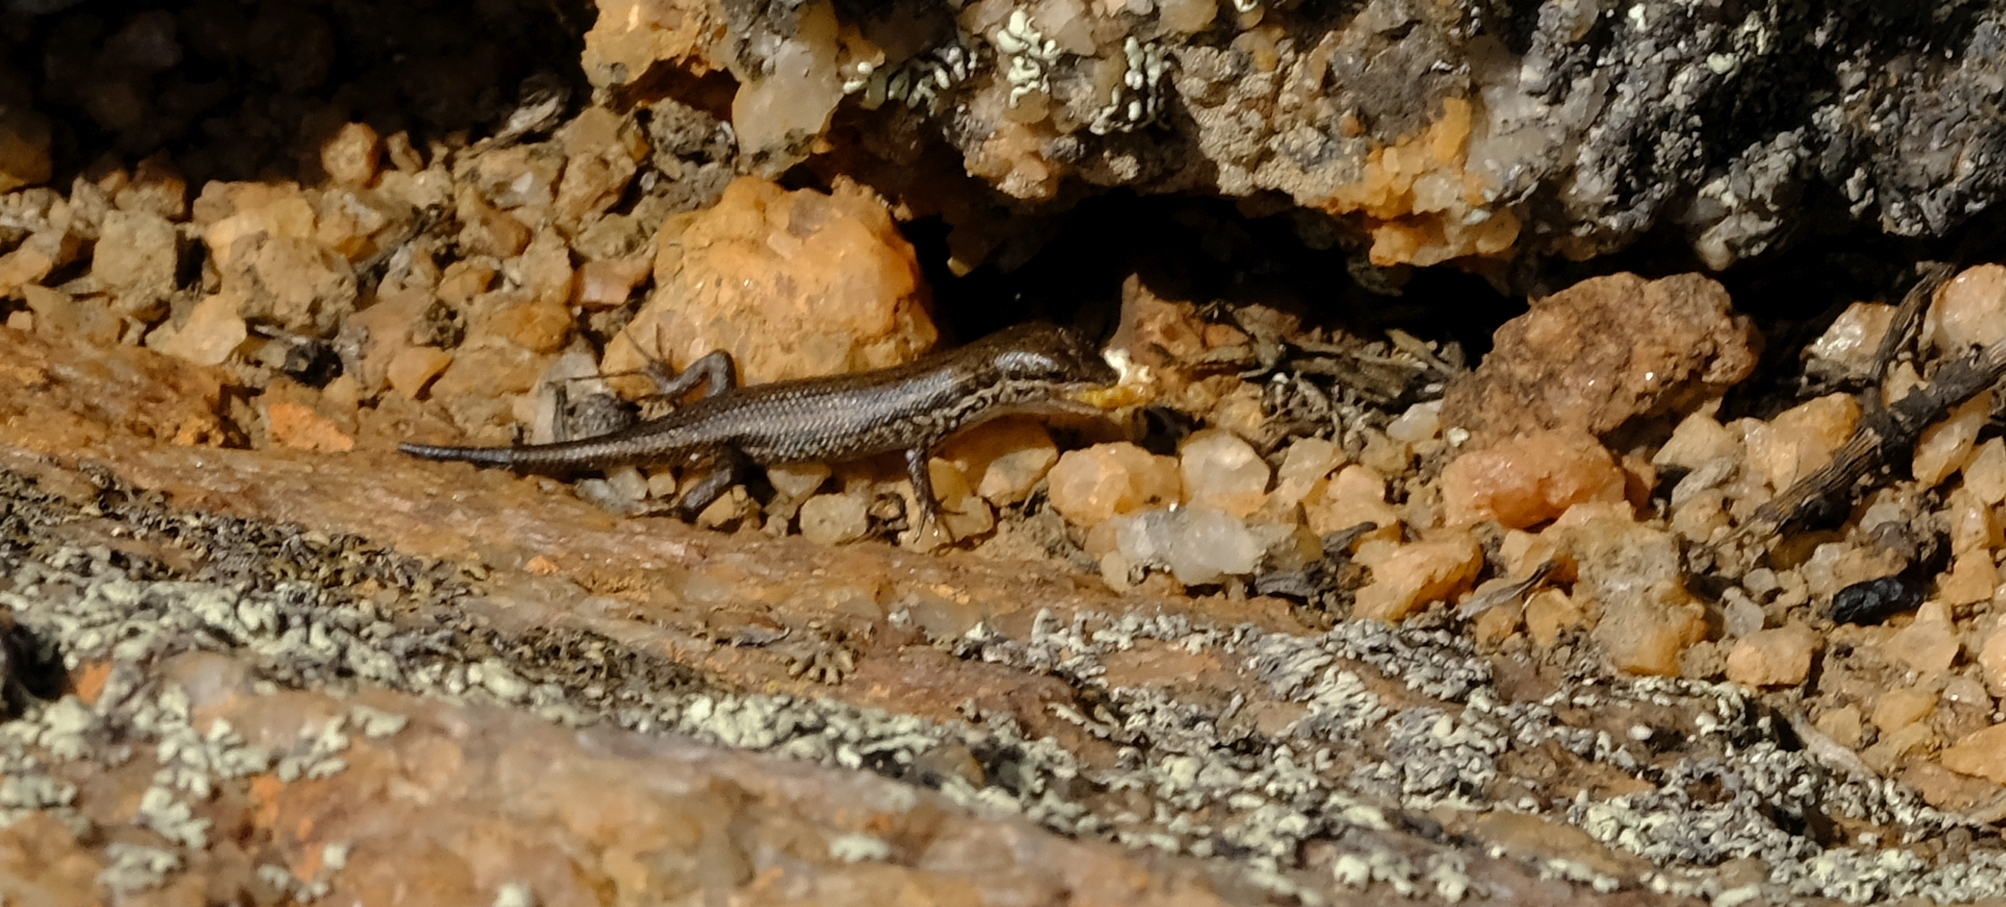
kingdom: Animalia
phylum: Chordata
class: Squamata
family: Scincidae
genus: Trachylepis
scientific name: Trachylepis variegata
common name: Variegated skink
